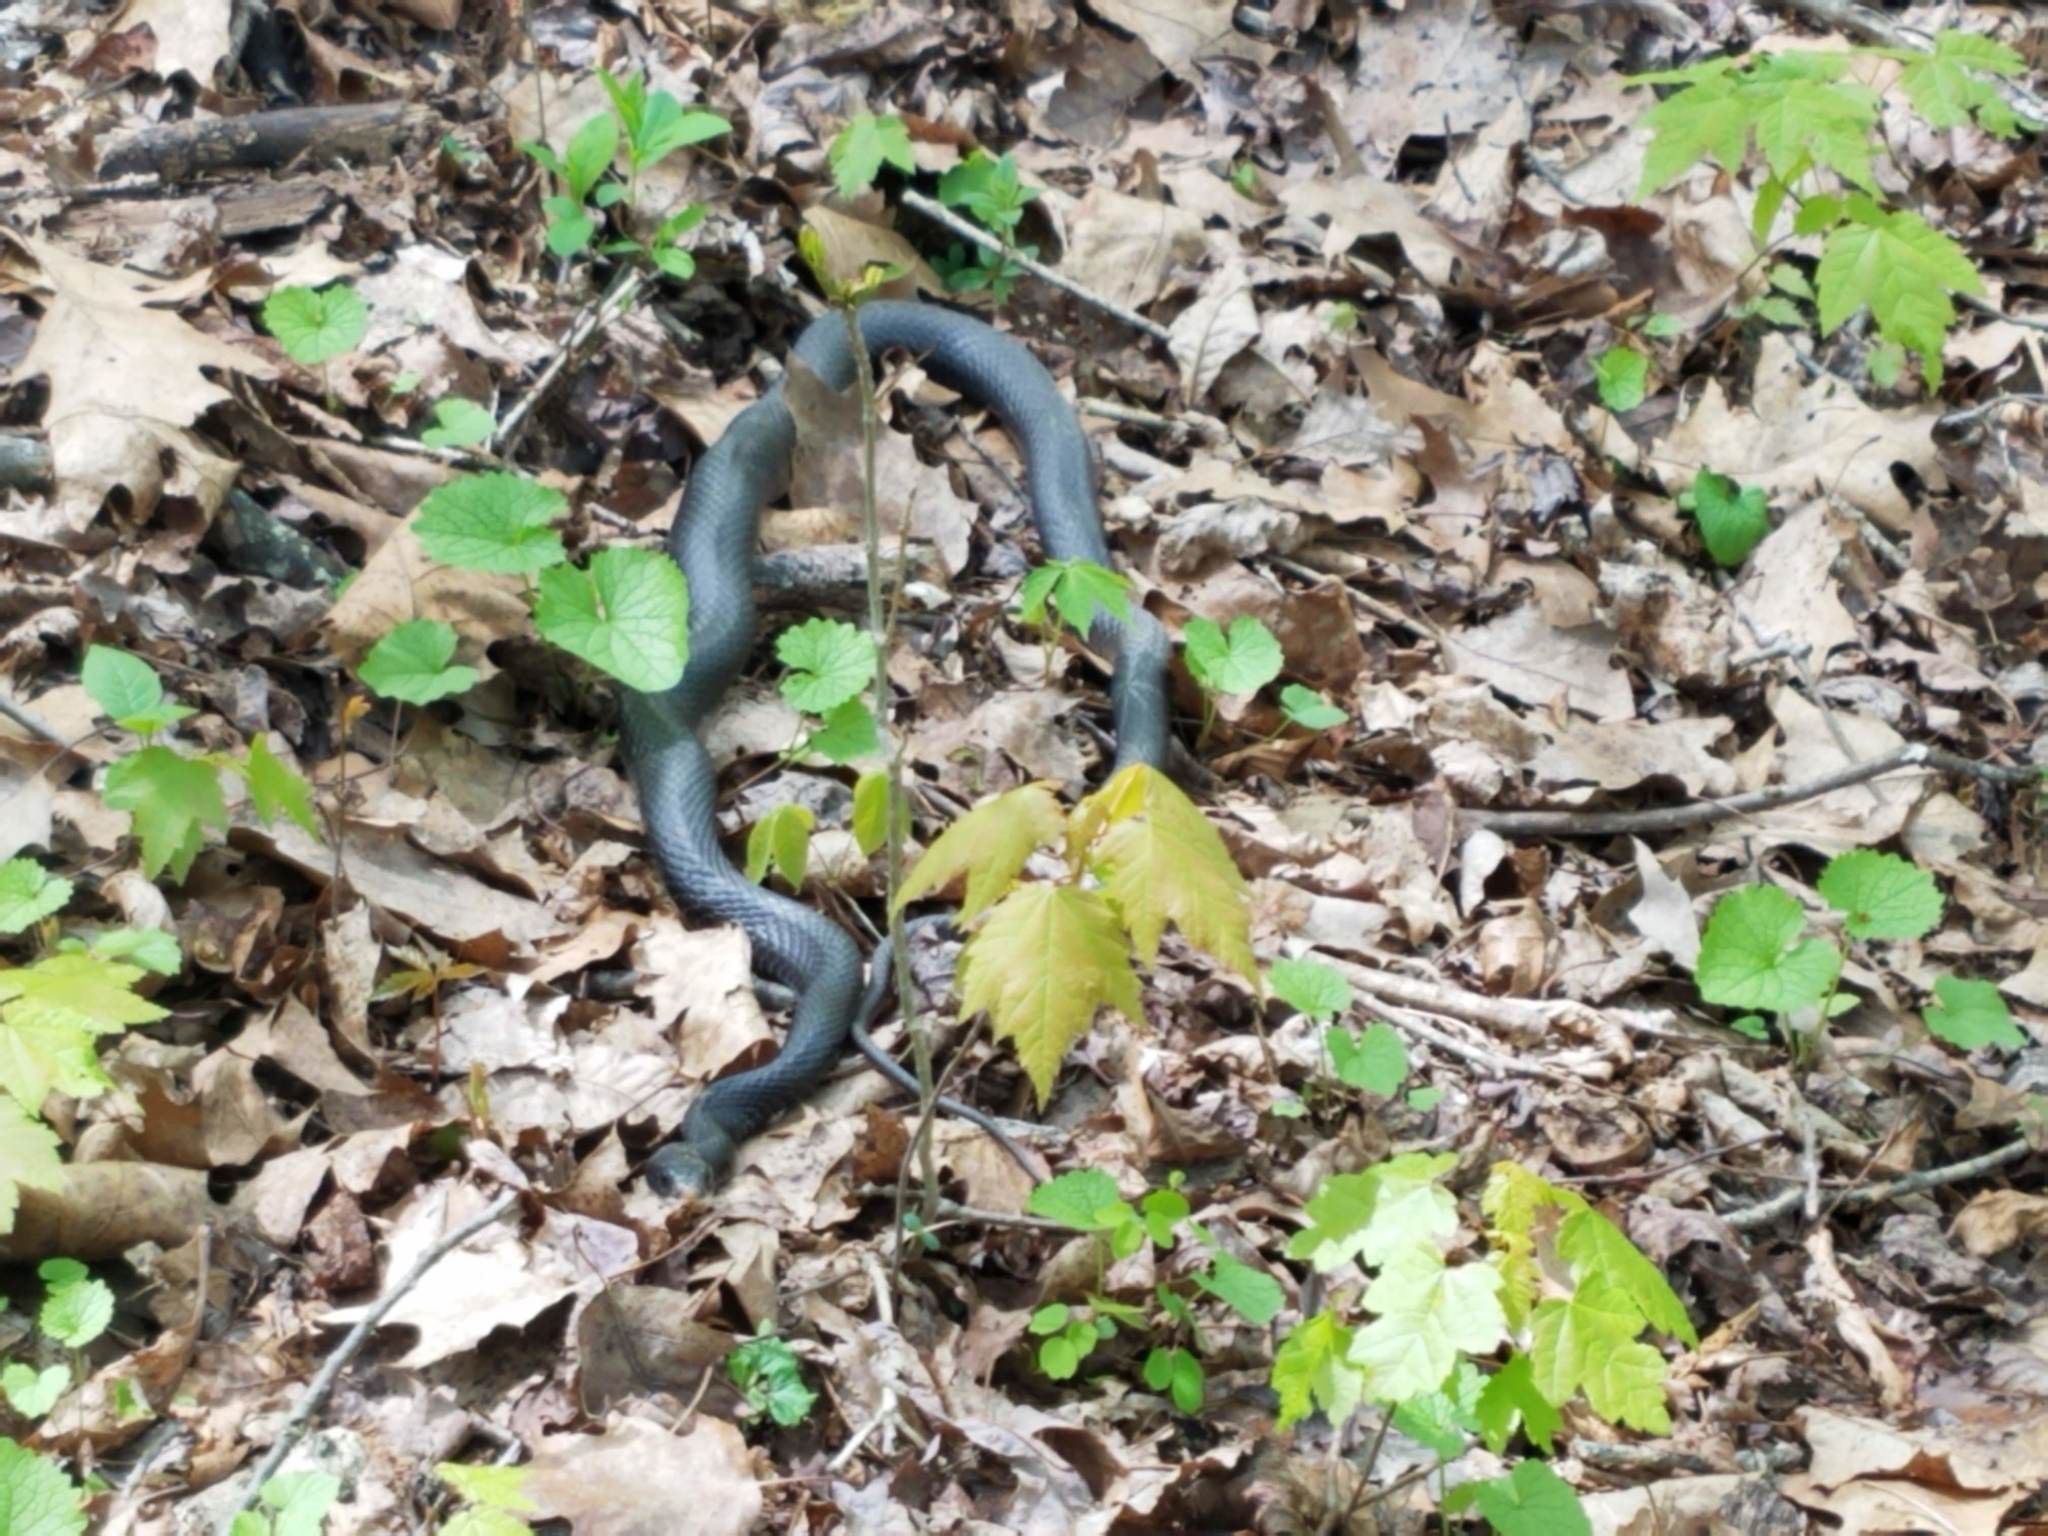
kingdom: Animalia
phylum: Chordata
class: Squamata
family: Colubridae
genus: Coluber
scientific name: Coluber constrictor
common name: Eastern racer
